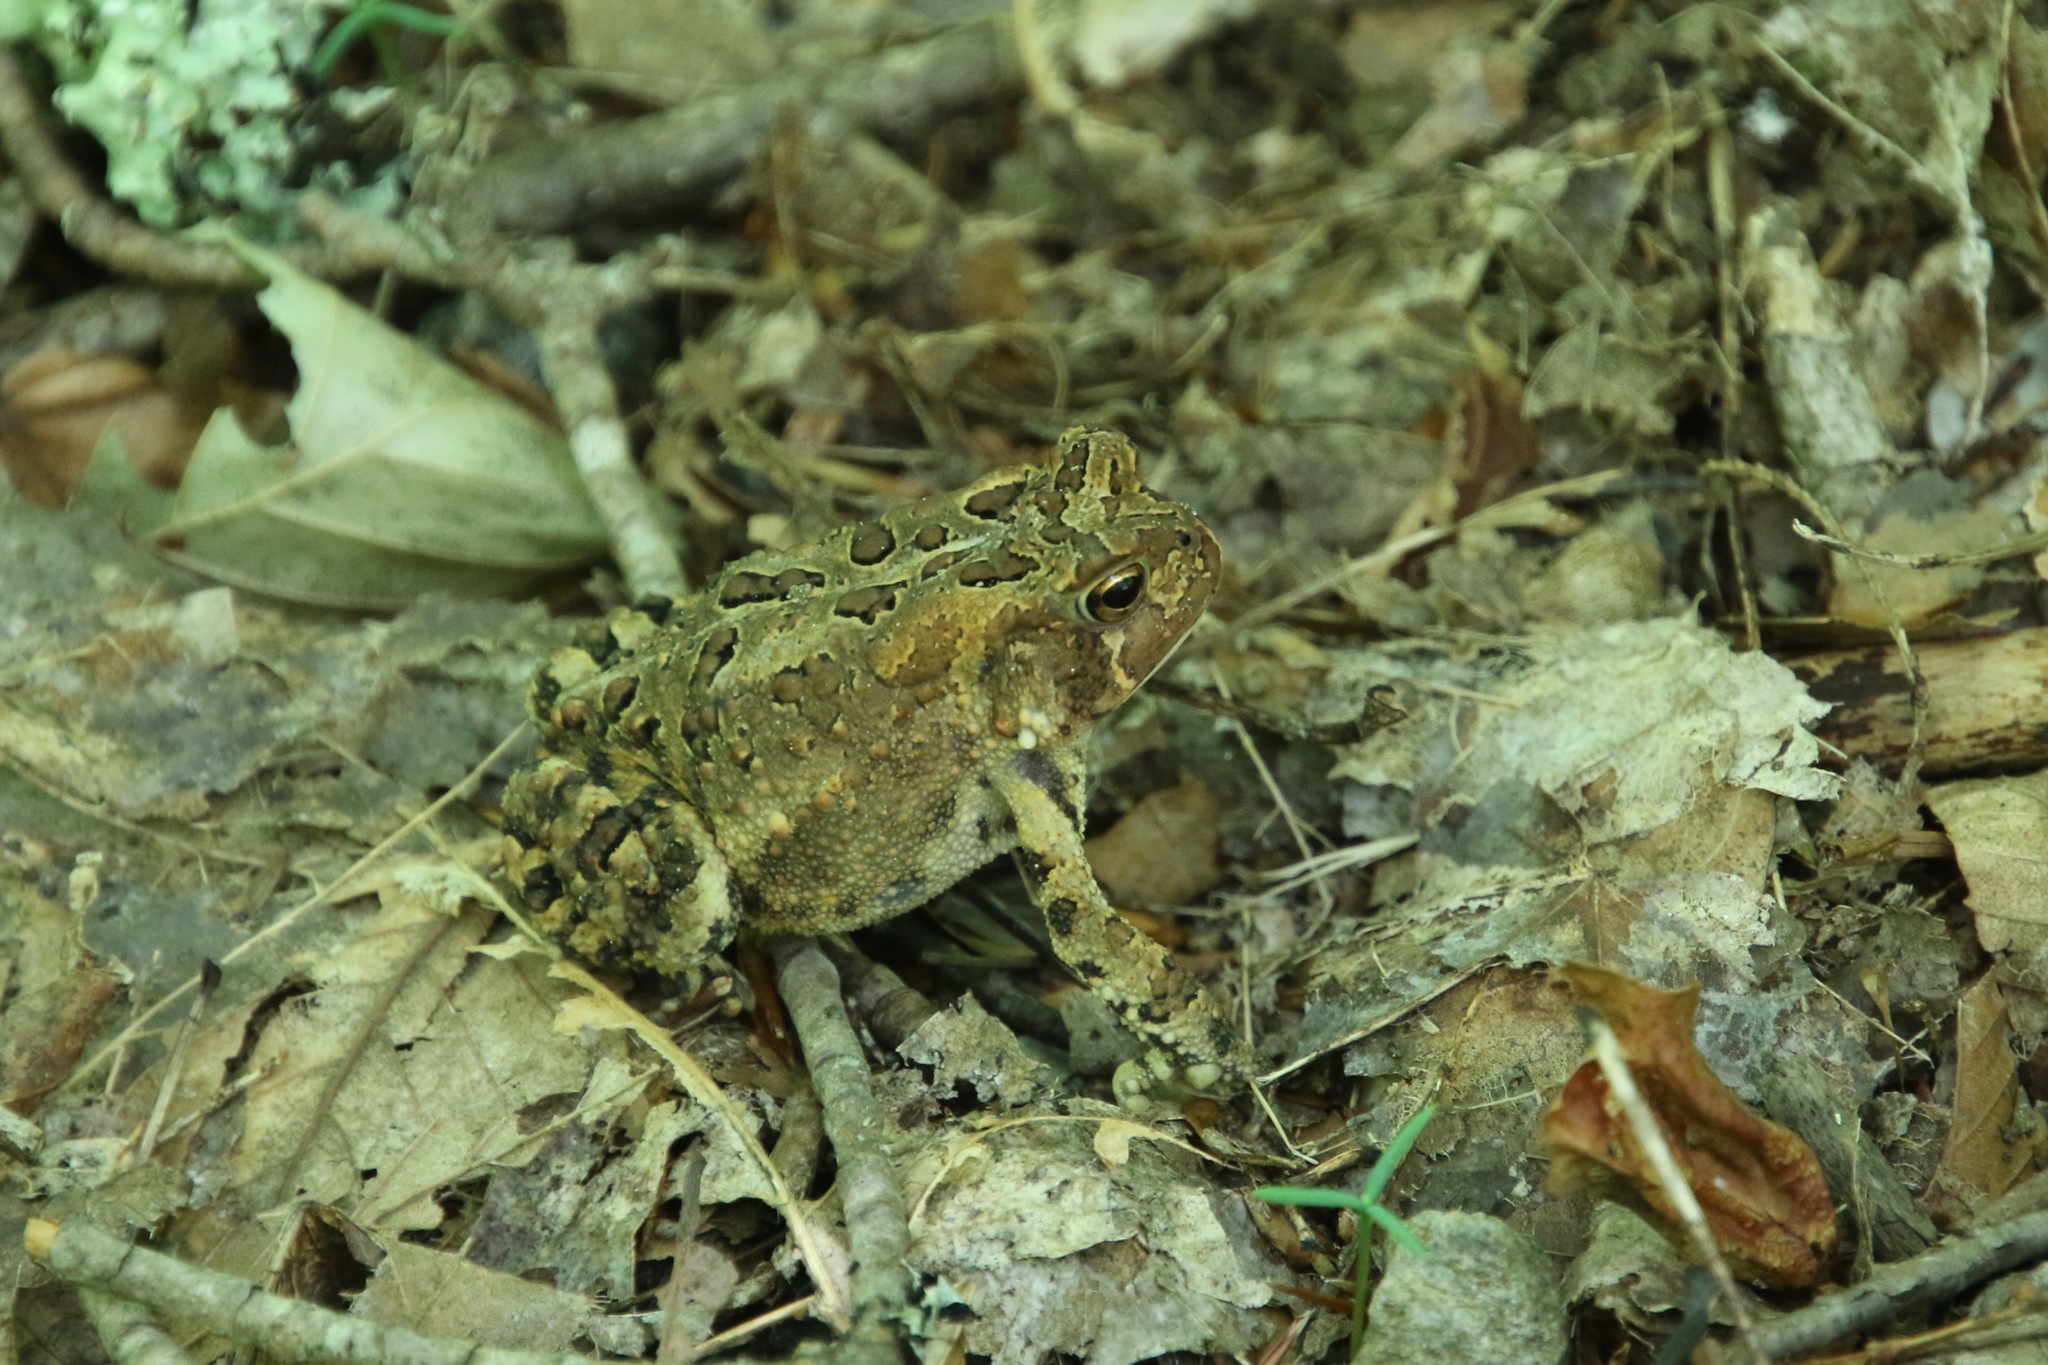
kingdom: Animalia
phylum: Chordata
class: Amphibia
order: Anura
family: Bufonidae
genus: Anaxyrus
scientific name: Anaxyrus americanus
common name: American toad
